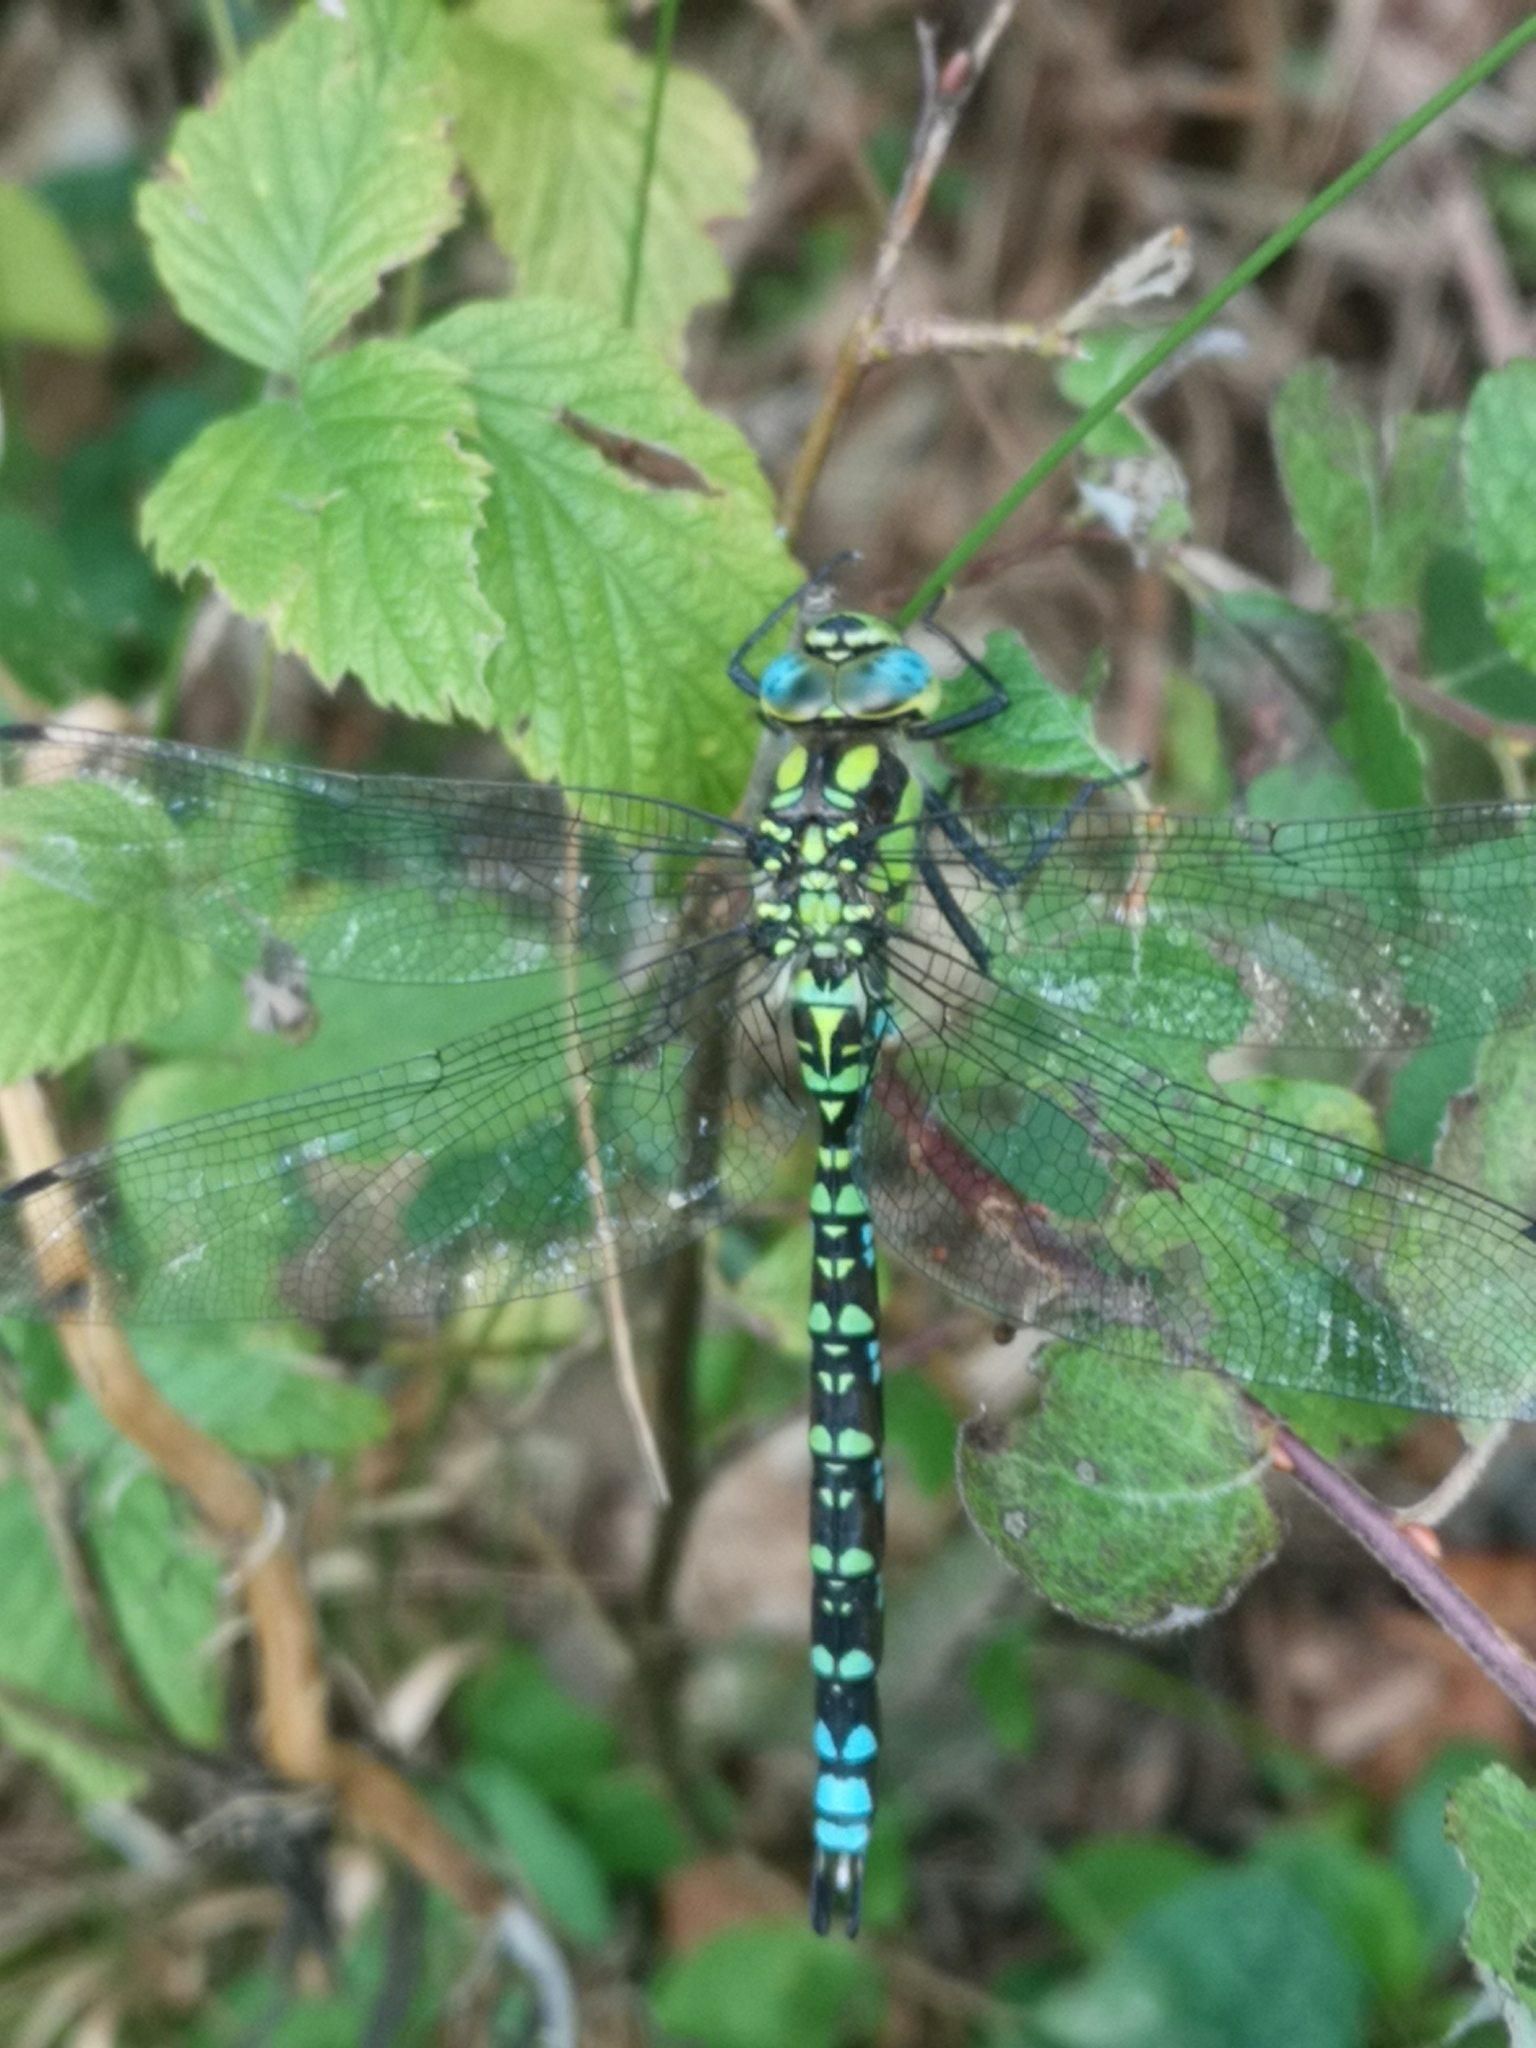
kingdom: Animalia
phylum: Arthropoda
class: Insecta
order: Odonata
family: Aeshnidae
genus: Aeshna
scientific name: Aeshna cyanea
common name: Southern hawker
